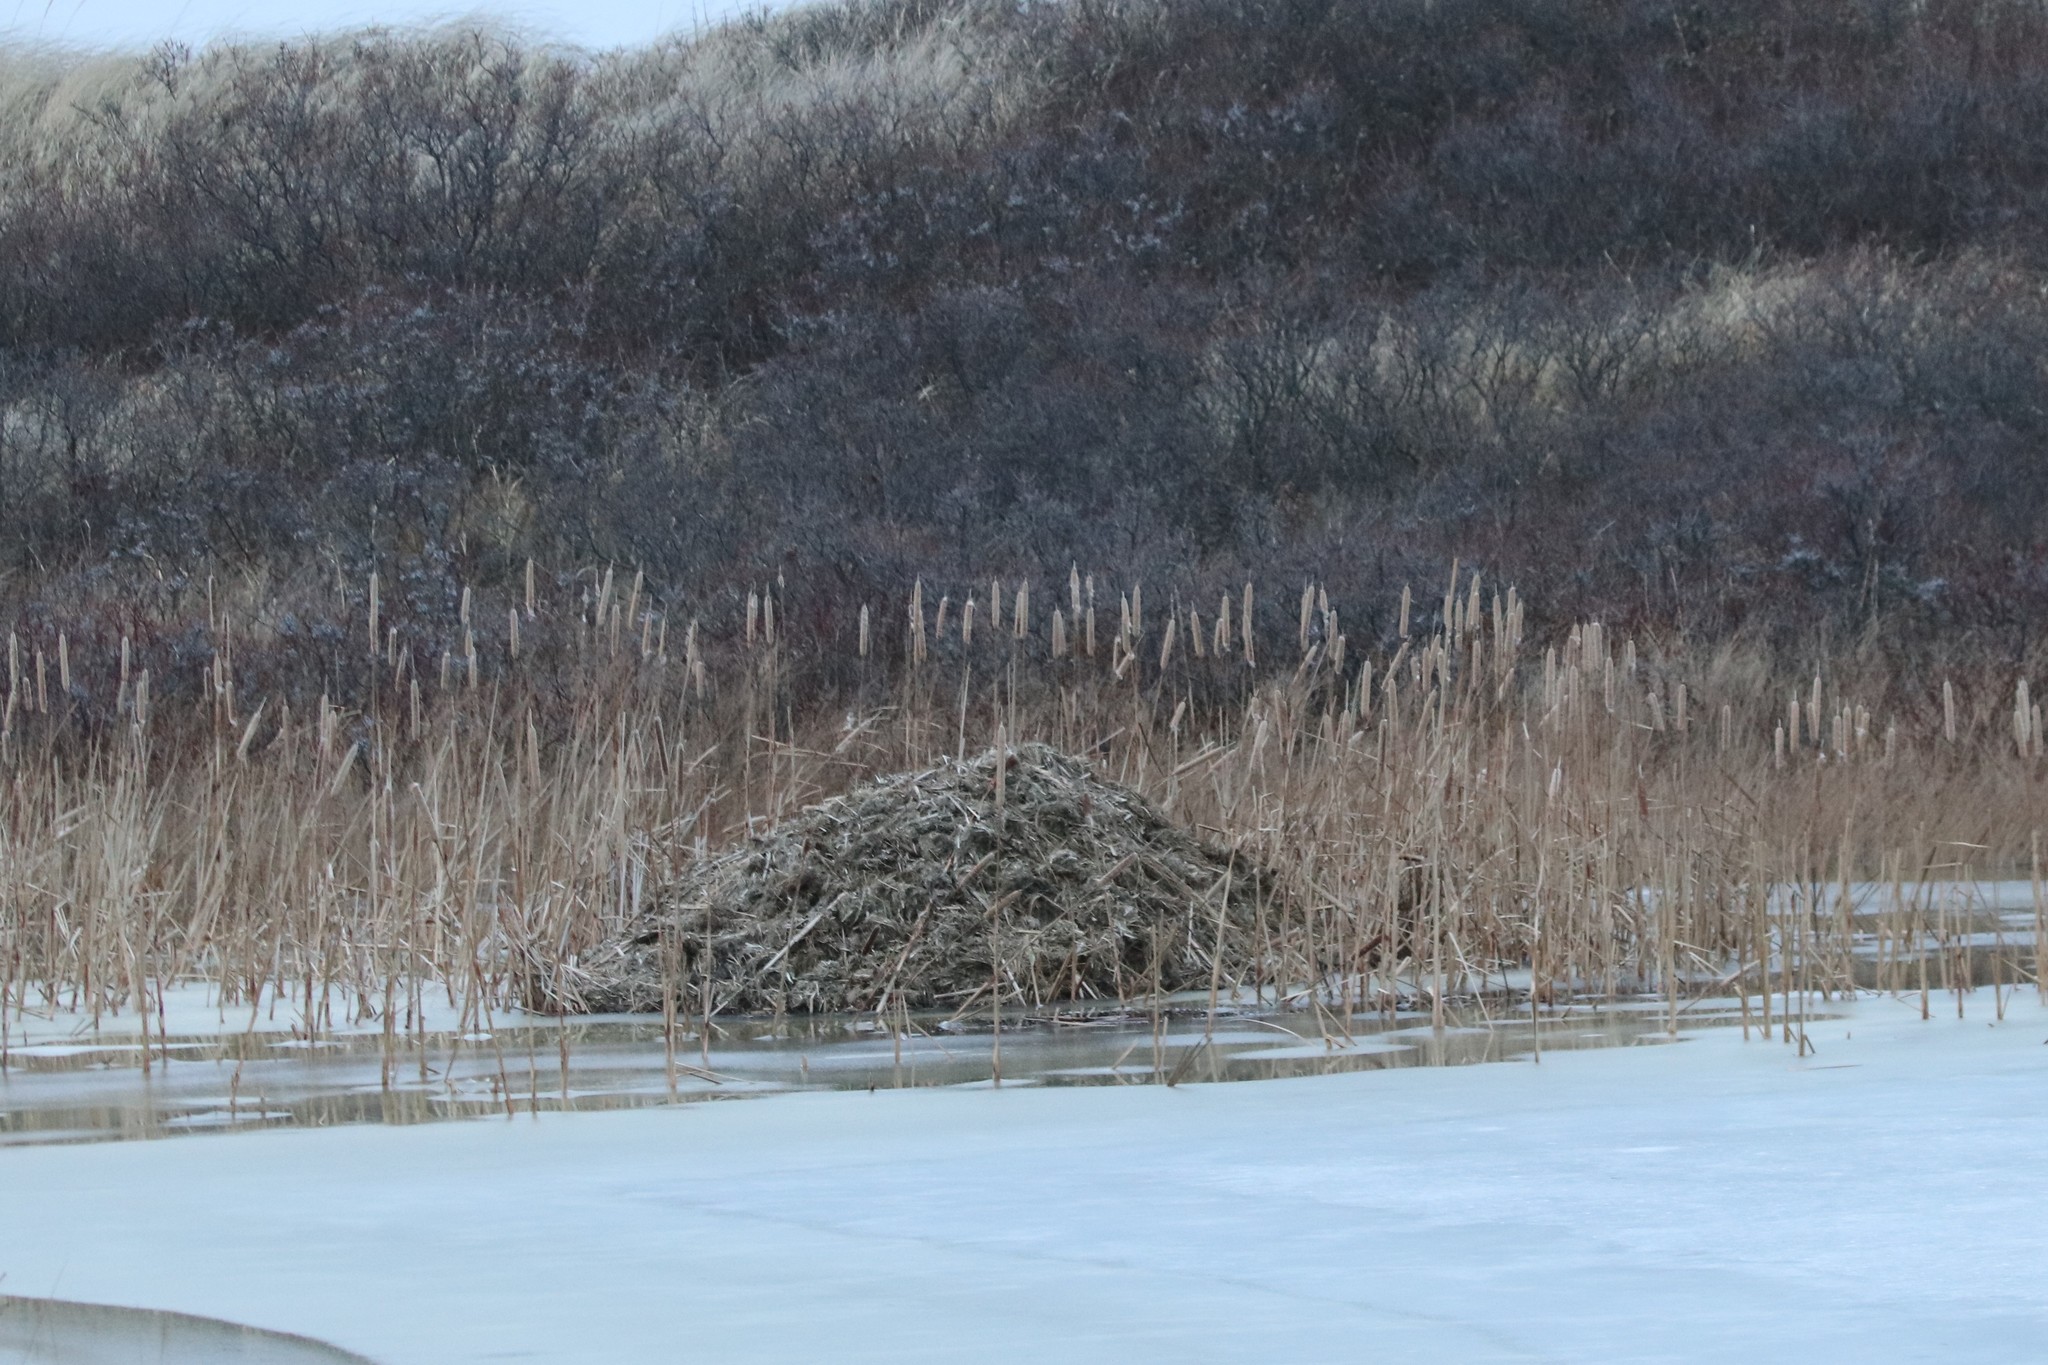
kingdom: Animalia
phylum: Chordata
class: Mammalia
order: Rodentia
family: Cricetidae
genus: Ondatra
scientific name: Ondatra zibethicus
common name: Muskrat
